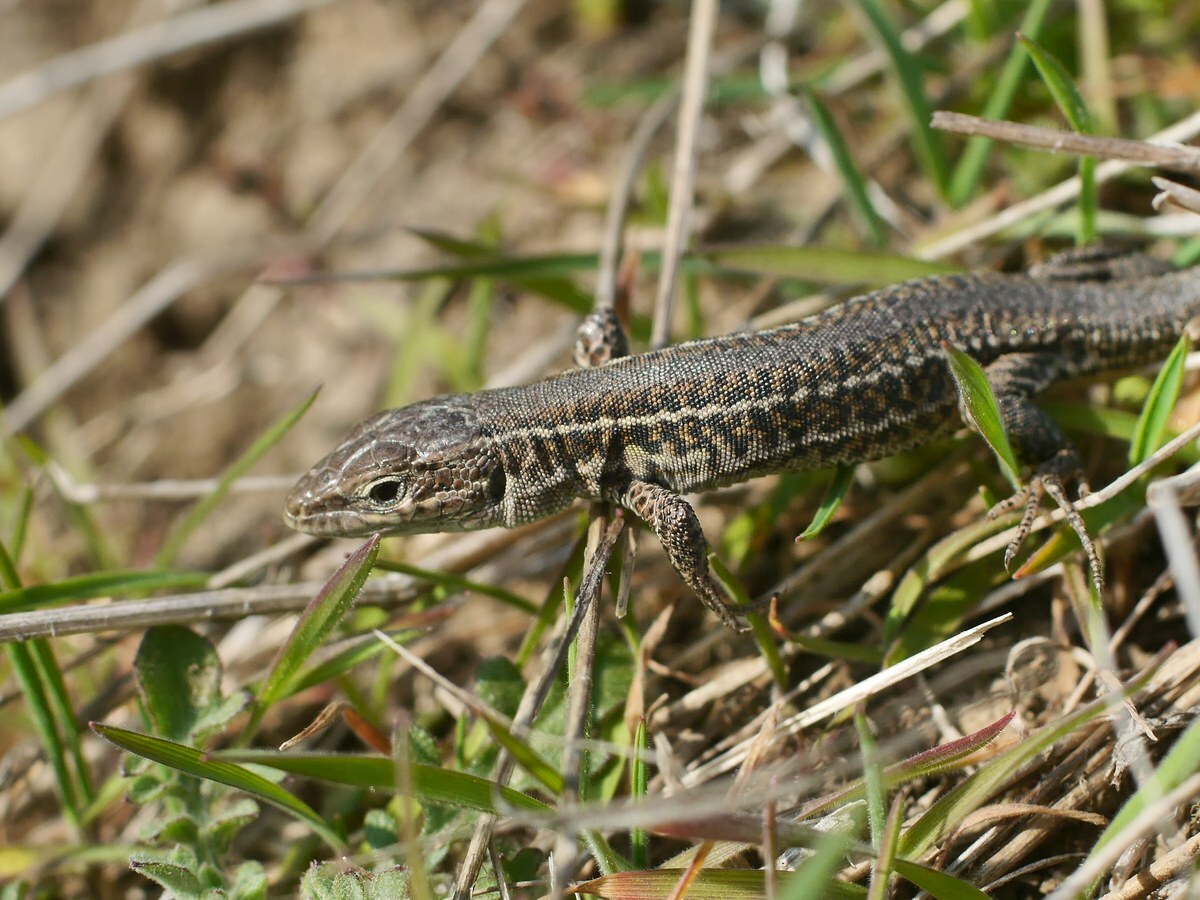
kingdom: Animalia
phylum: Chordata
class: Squamata
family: Lacertidae
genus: Podarcis
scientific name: Podarcis tauricus
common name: Balkan wall lizard
